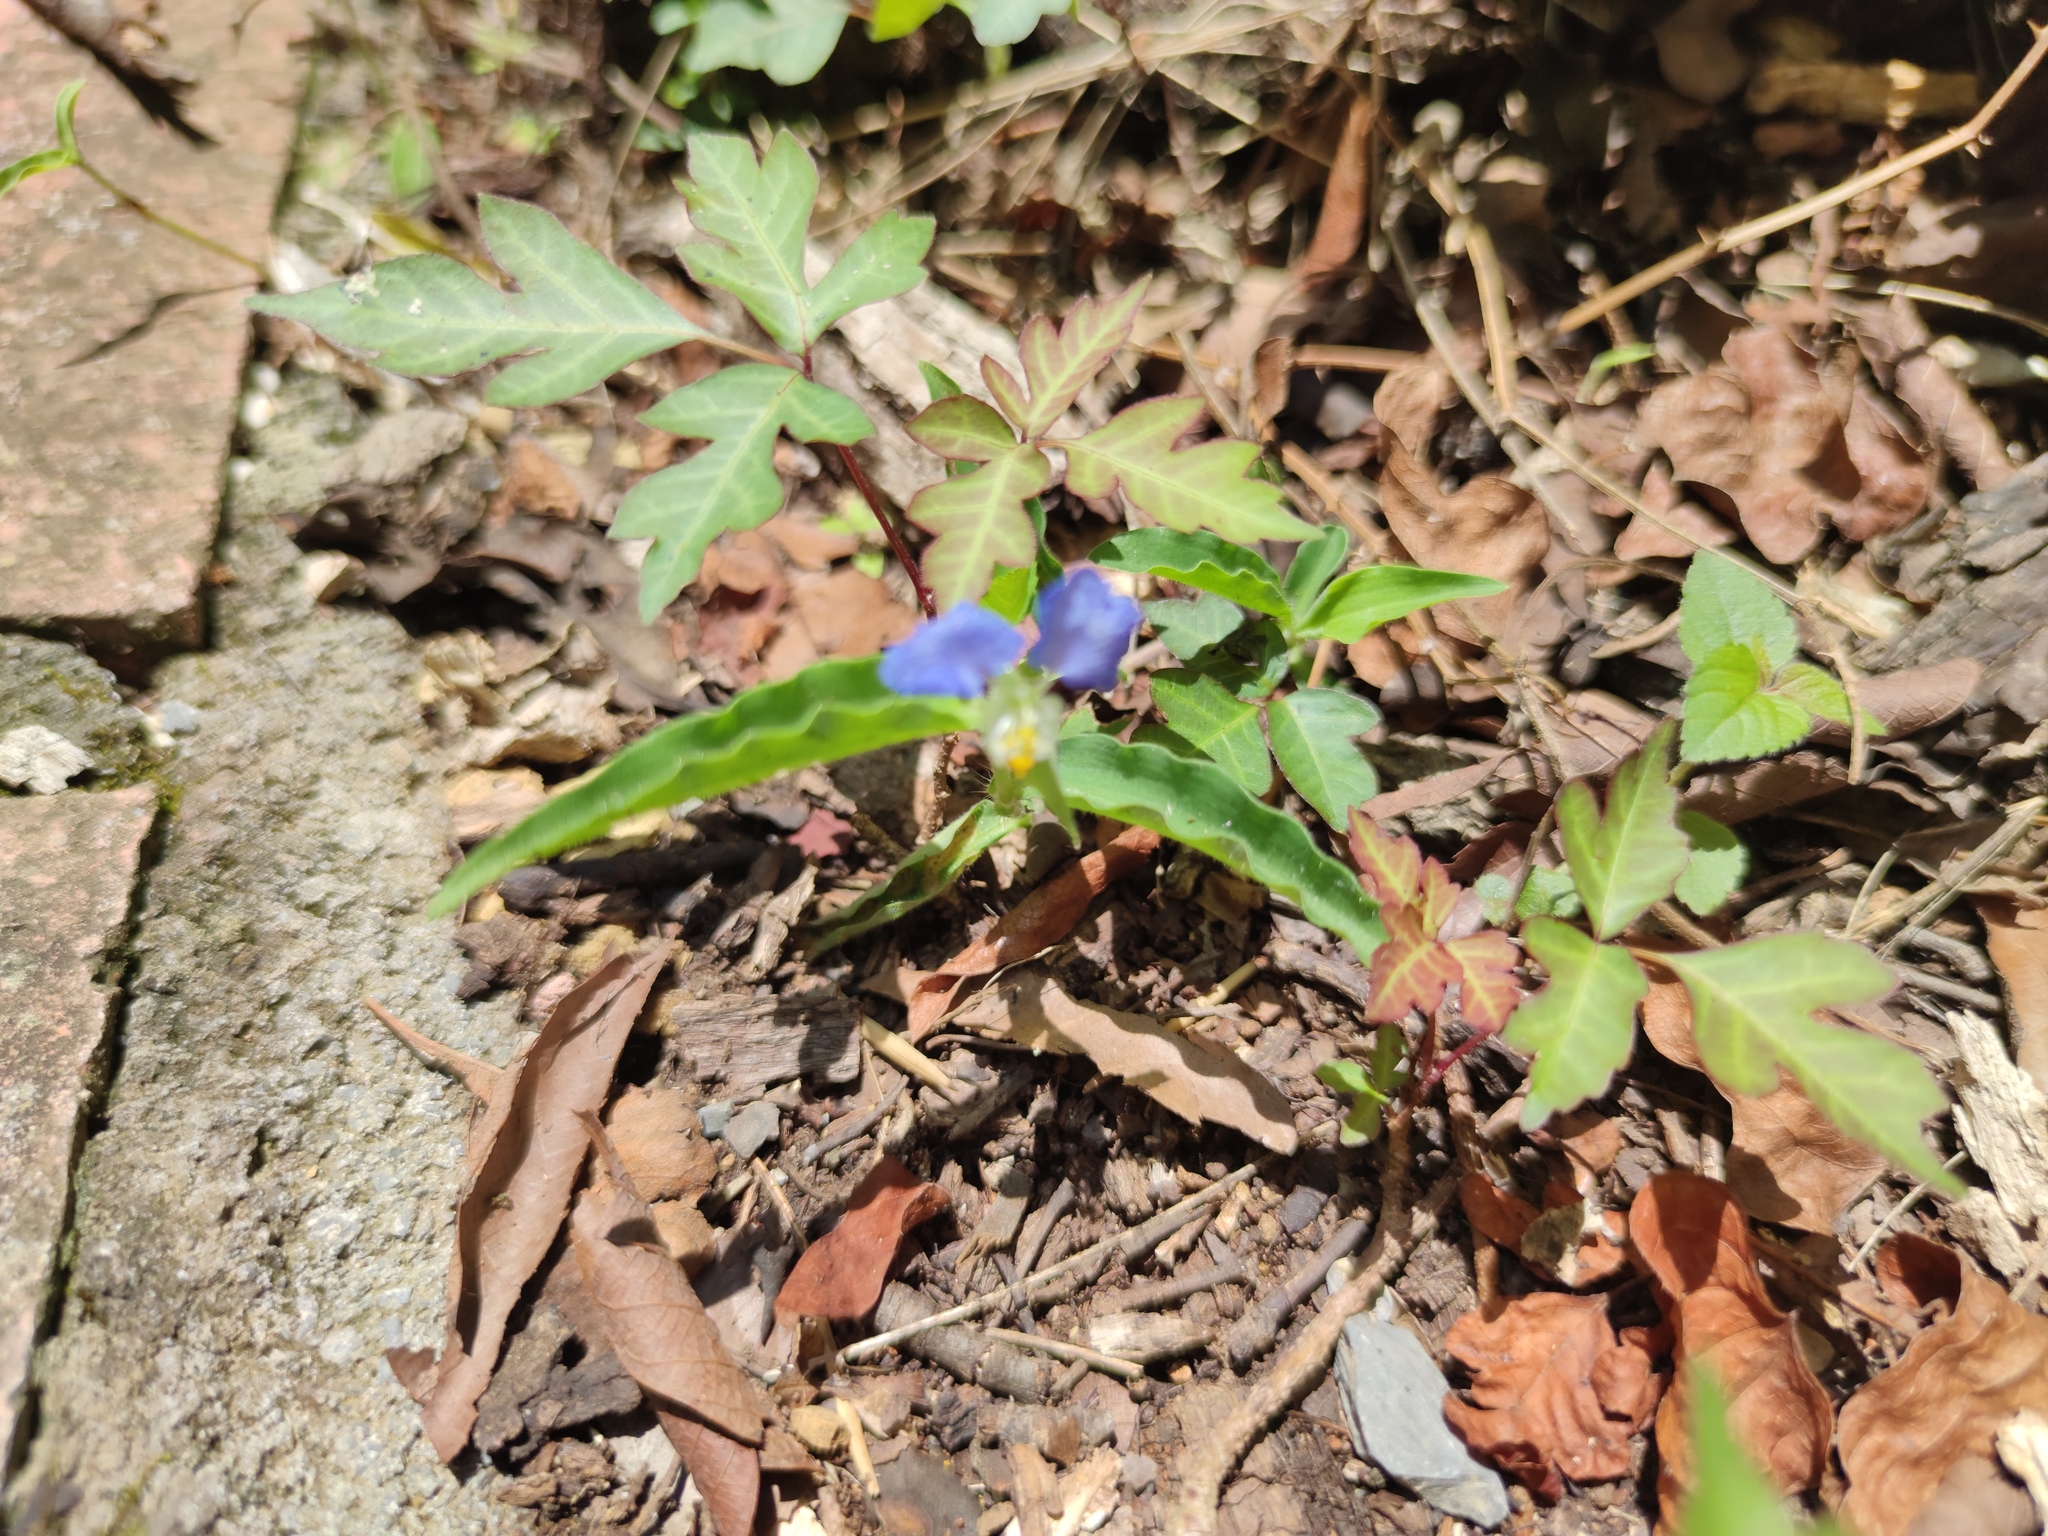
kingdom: Plantae
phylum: Tracheophyta
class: Liliopsida
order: Commelinales
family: Commelinaceae
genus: Commelina
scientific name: Commelina erecta
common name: Blousel blommetjie
